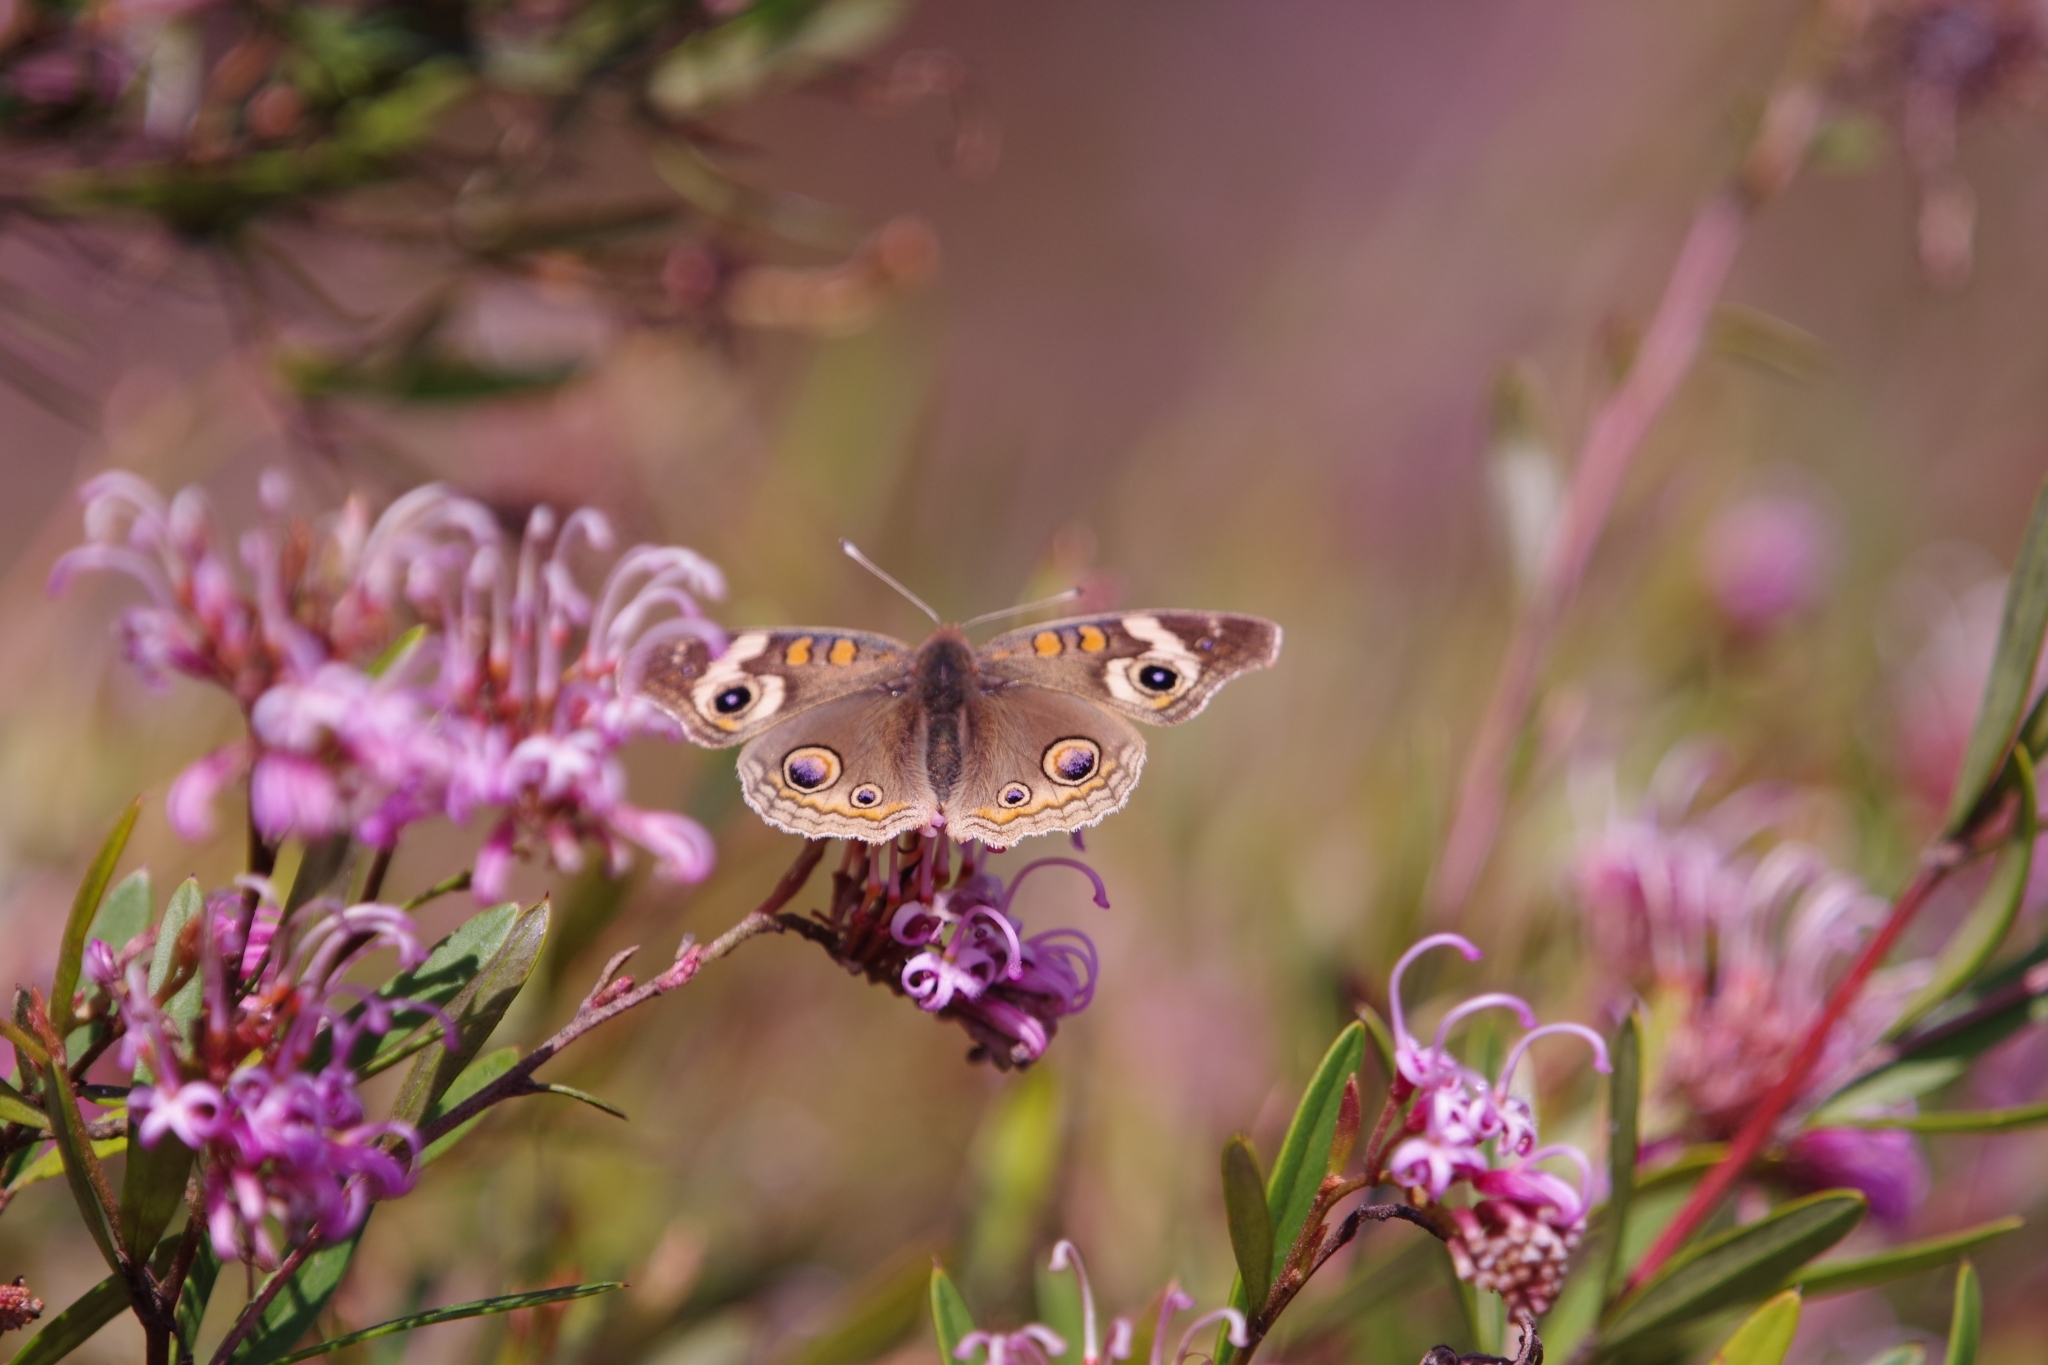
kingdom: Animalia
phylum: Arthropoda
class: Insecta
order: Lepidoptera
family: Nymphalidae
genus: Junonia
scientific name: Junonia grisea
